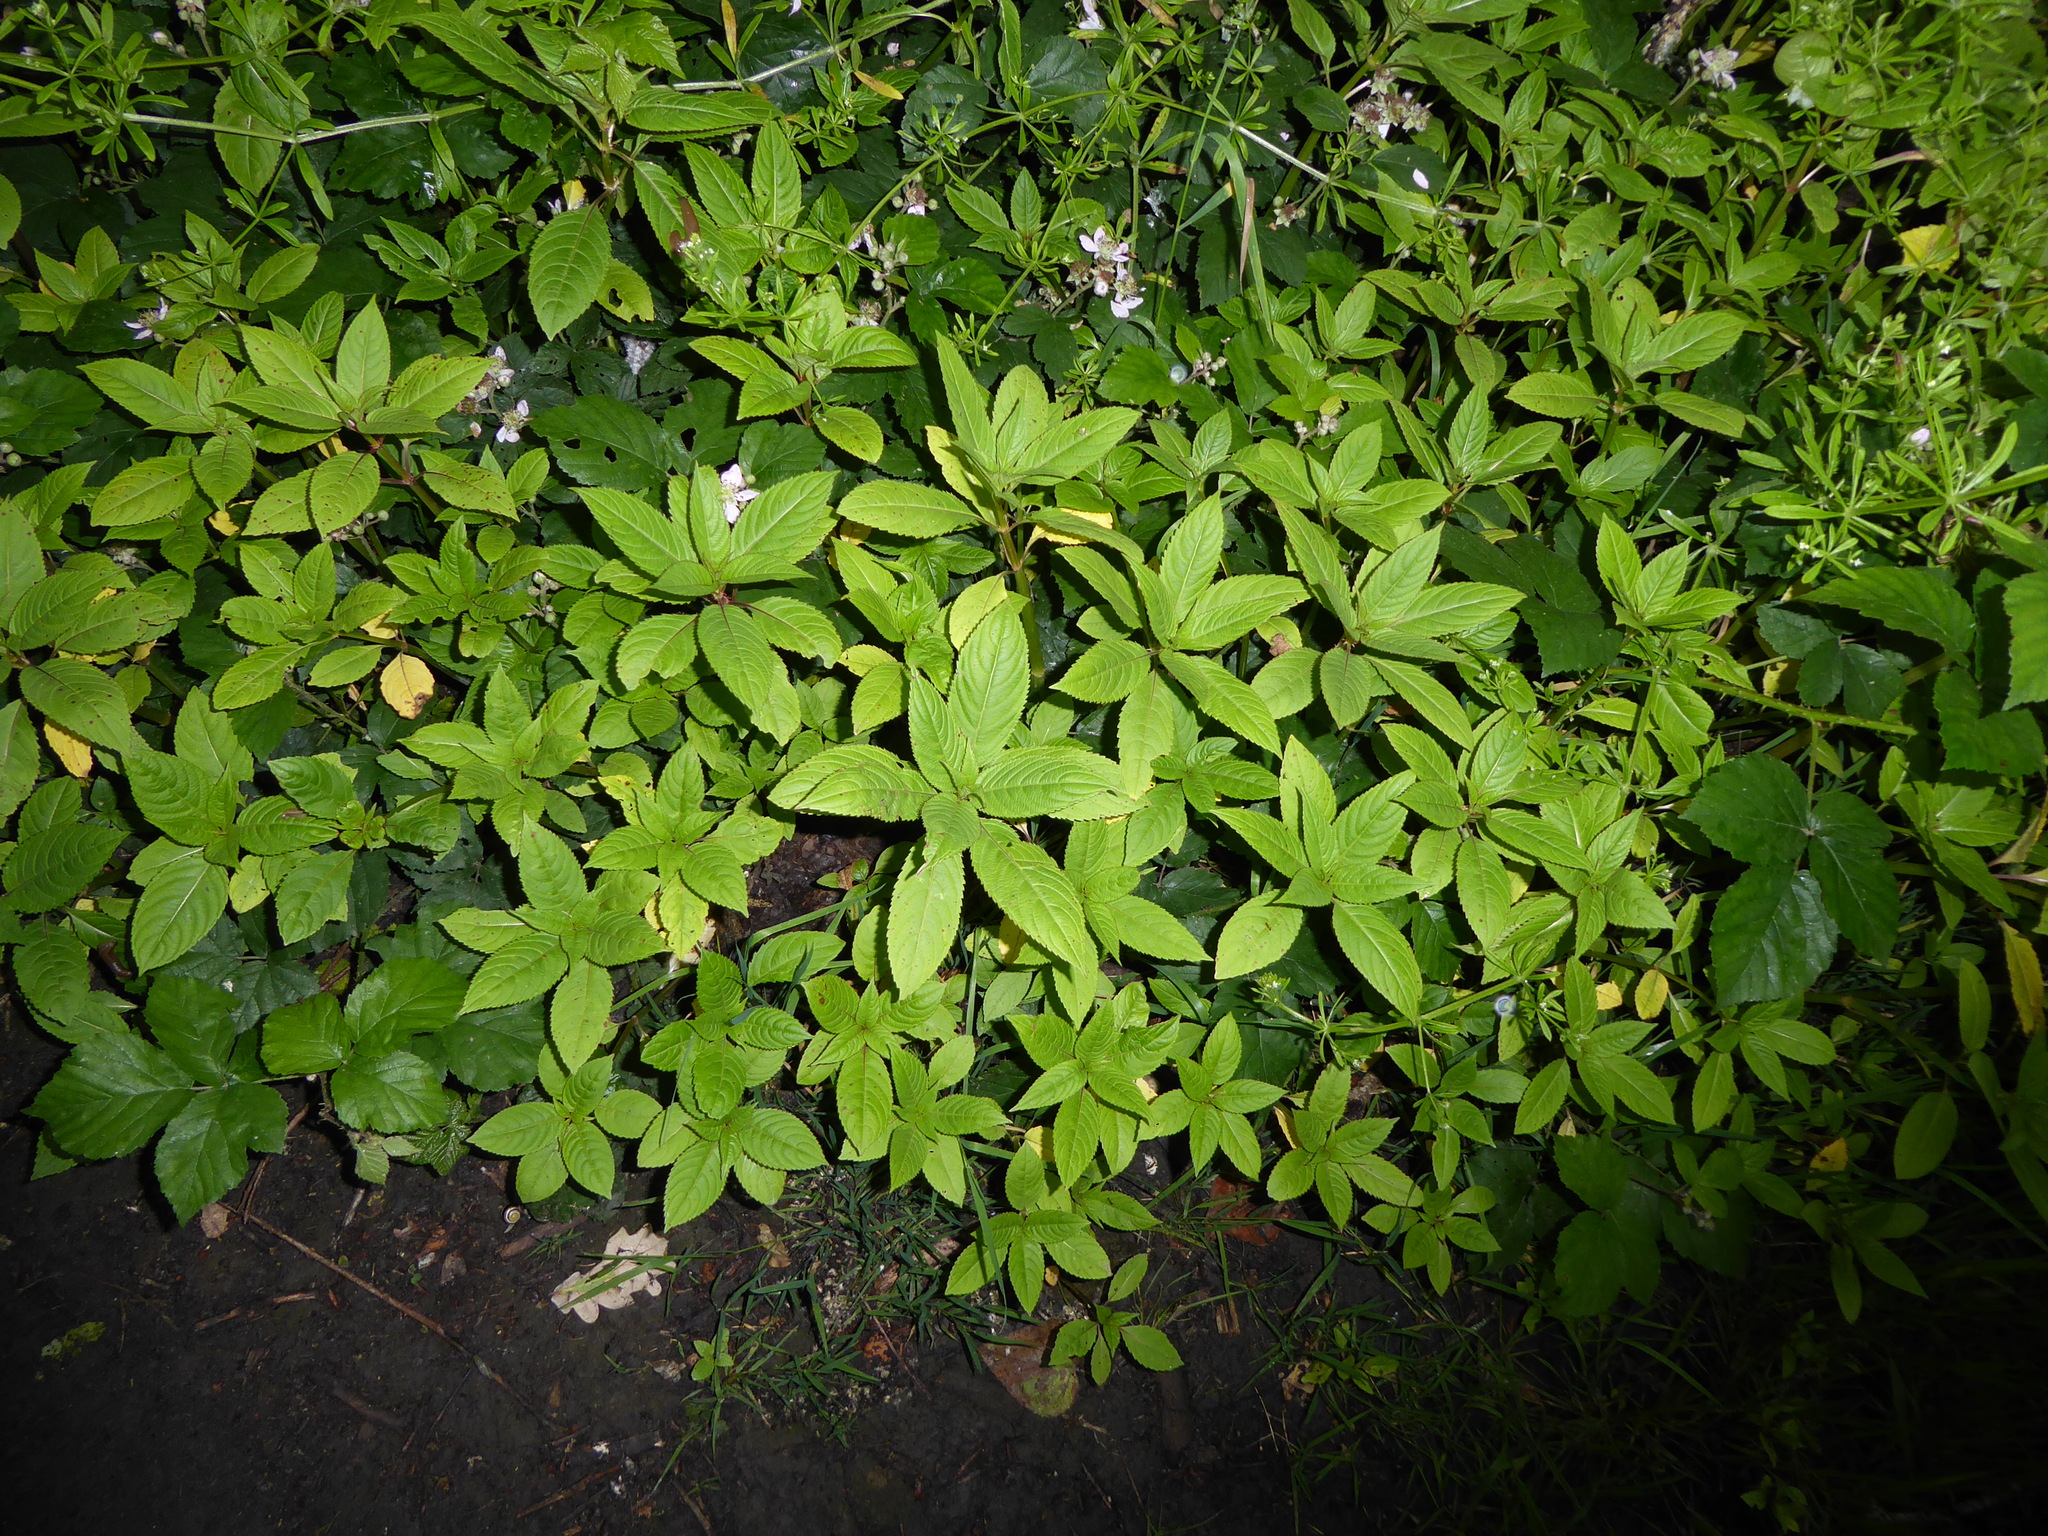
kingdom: Plantae
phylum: Tracheophyta
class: Magnoliopsida
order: Ericales
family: Balsaminaceae
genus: Impatiens
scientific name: Impatiens glandulifera
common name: Himalayan balsam
